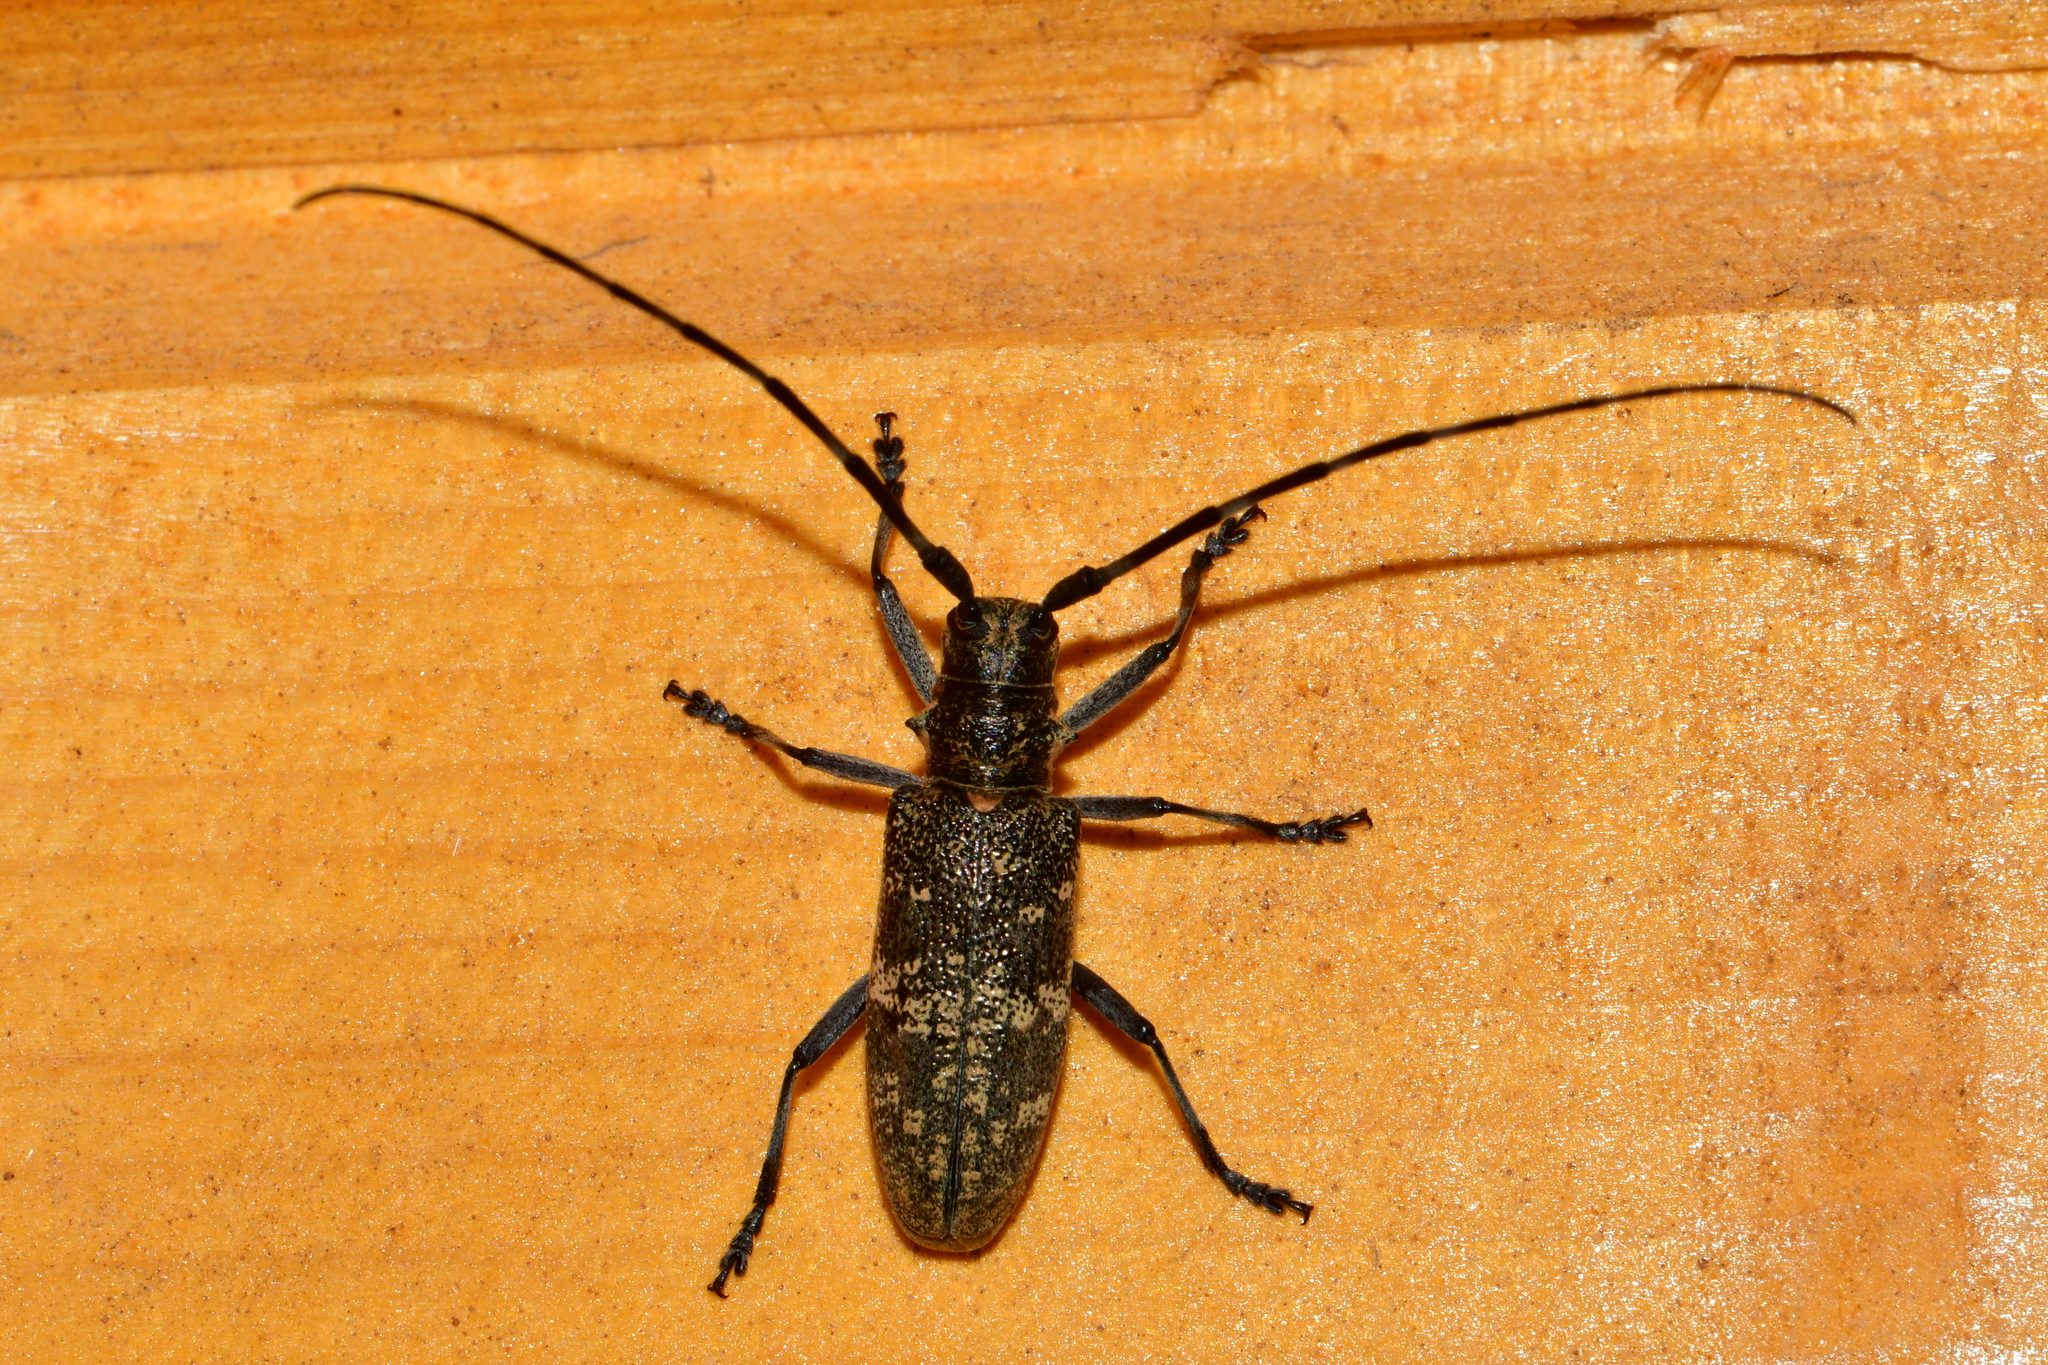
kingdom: Animalia
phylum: Arthropoda
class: Insecta
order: Coleoptera
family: Cerambycidae
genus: Monochamus
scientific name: Monochamus galloprovincialis
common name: Pine sawyer
